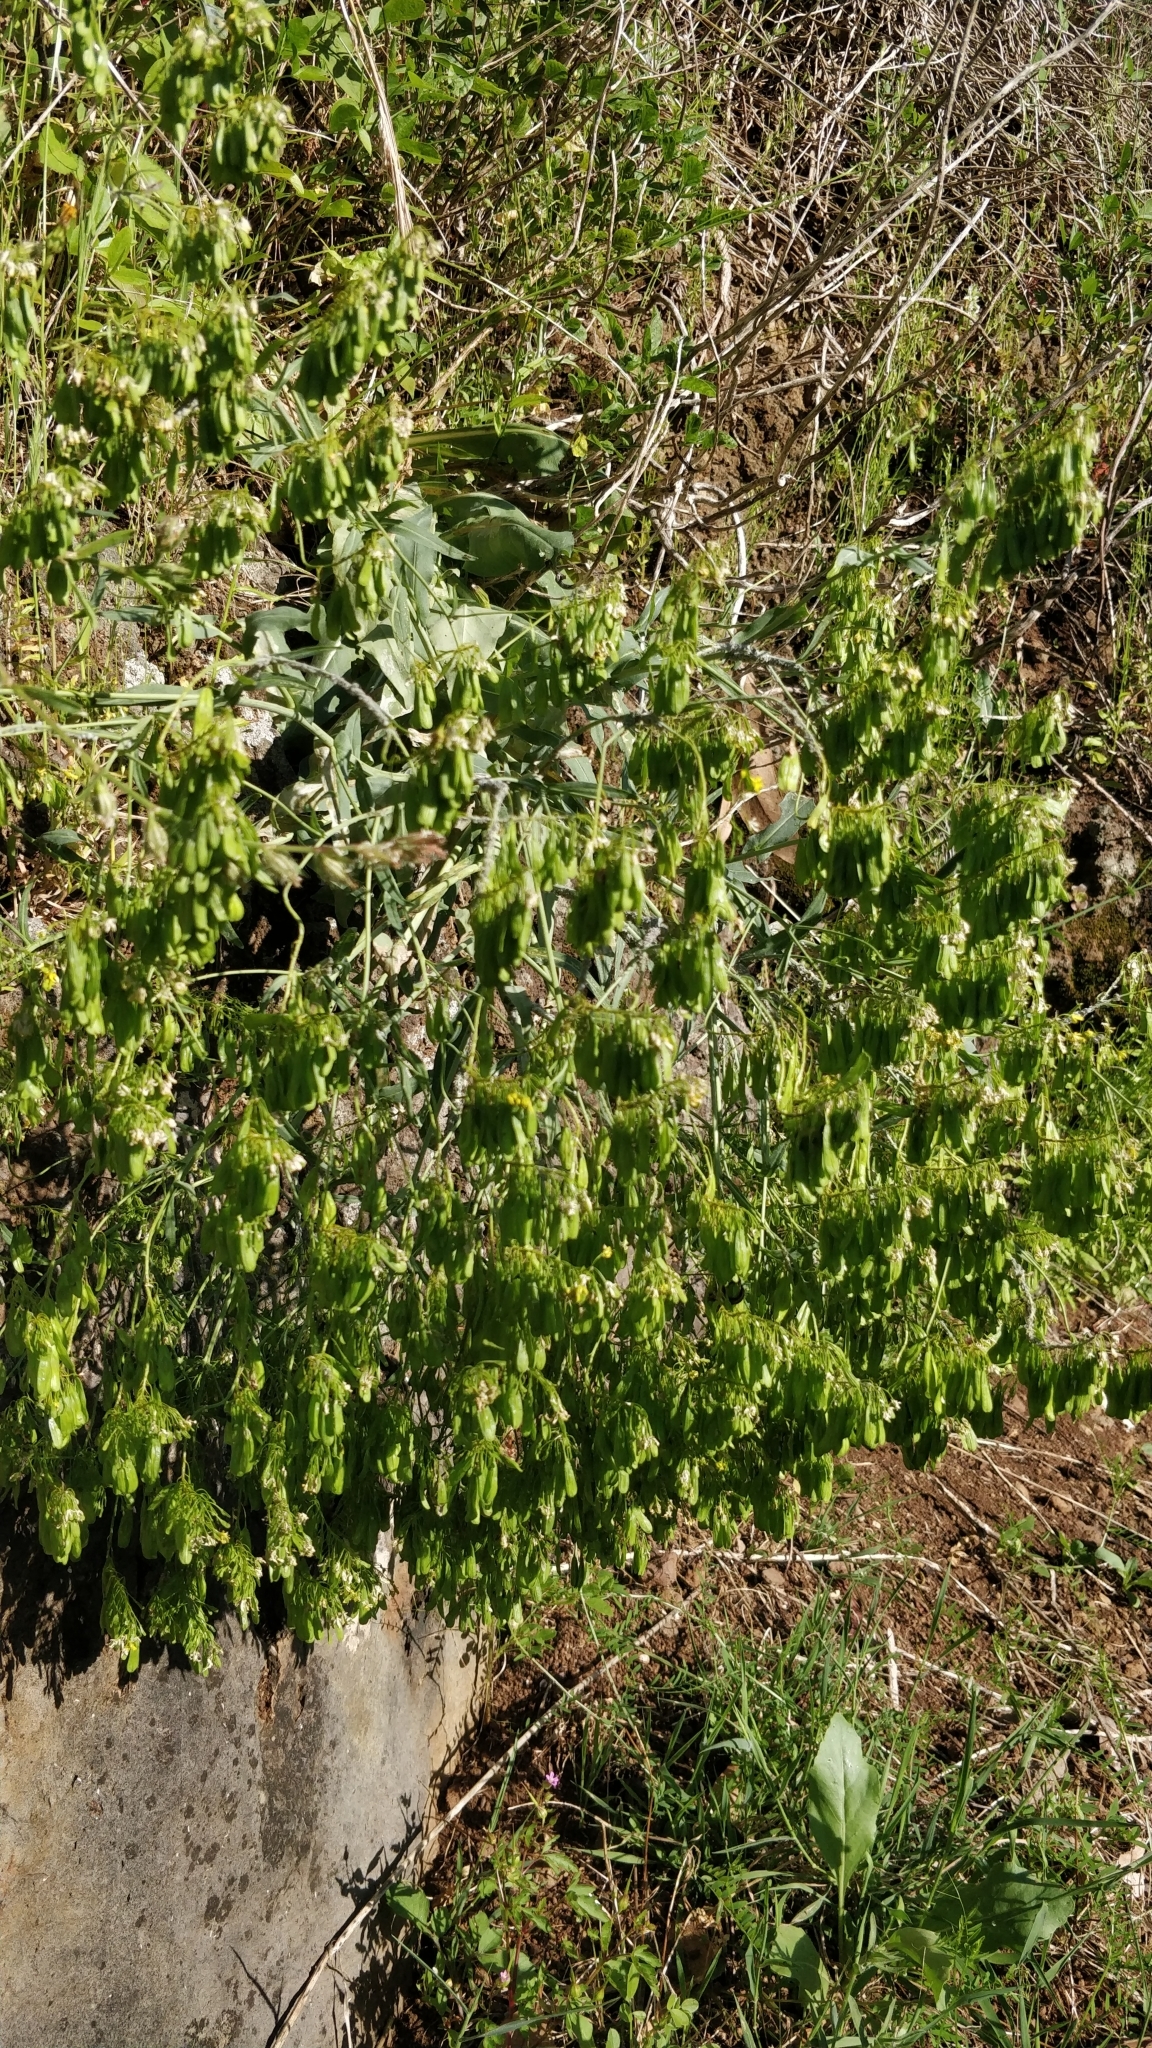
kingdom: Plantae
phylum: Tracheophyta
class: Magnoliopsida
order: Brassicales
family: Brassicaceae
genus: Isatis
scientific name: Isatis tinctoria
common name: Woad
